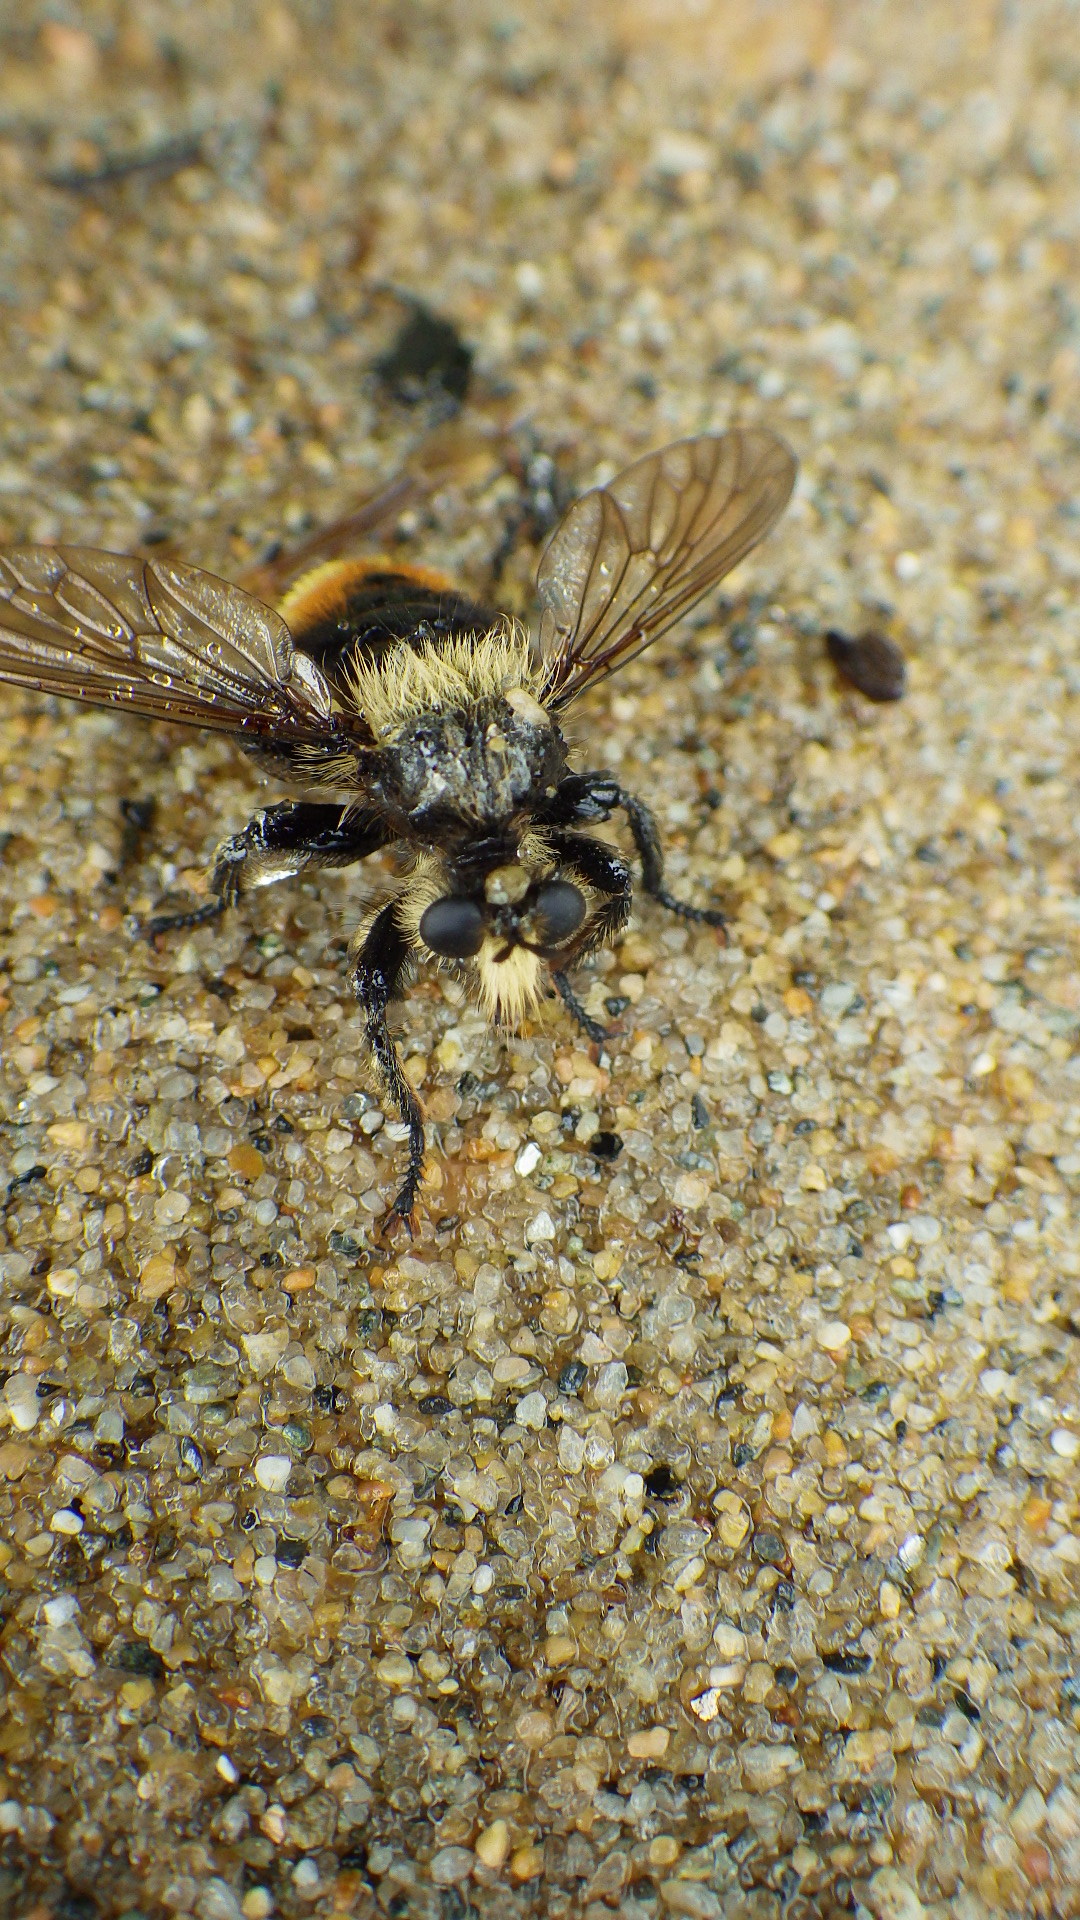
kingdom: Animalia
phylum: Arthropoda
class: Insecta
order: Diptera
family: Asilidae
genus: Laphria
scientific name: Laphria fernaldi
